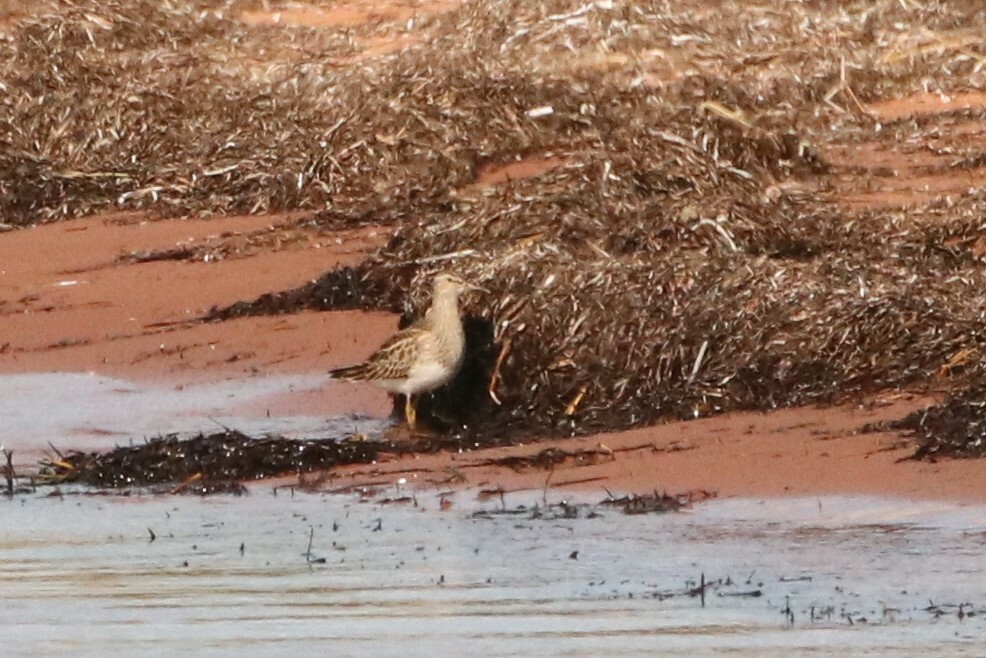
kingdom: Animalia
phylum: Chordata
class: Aves
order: Charadriiformes
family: Scolopacidae
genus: Calidris
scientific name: Calidris melanotos
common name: Pectoral sandpiper
